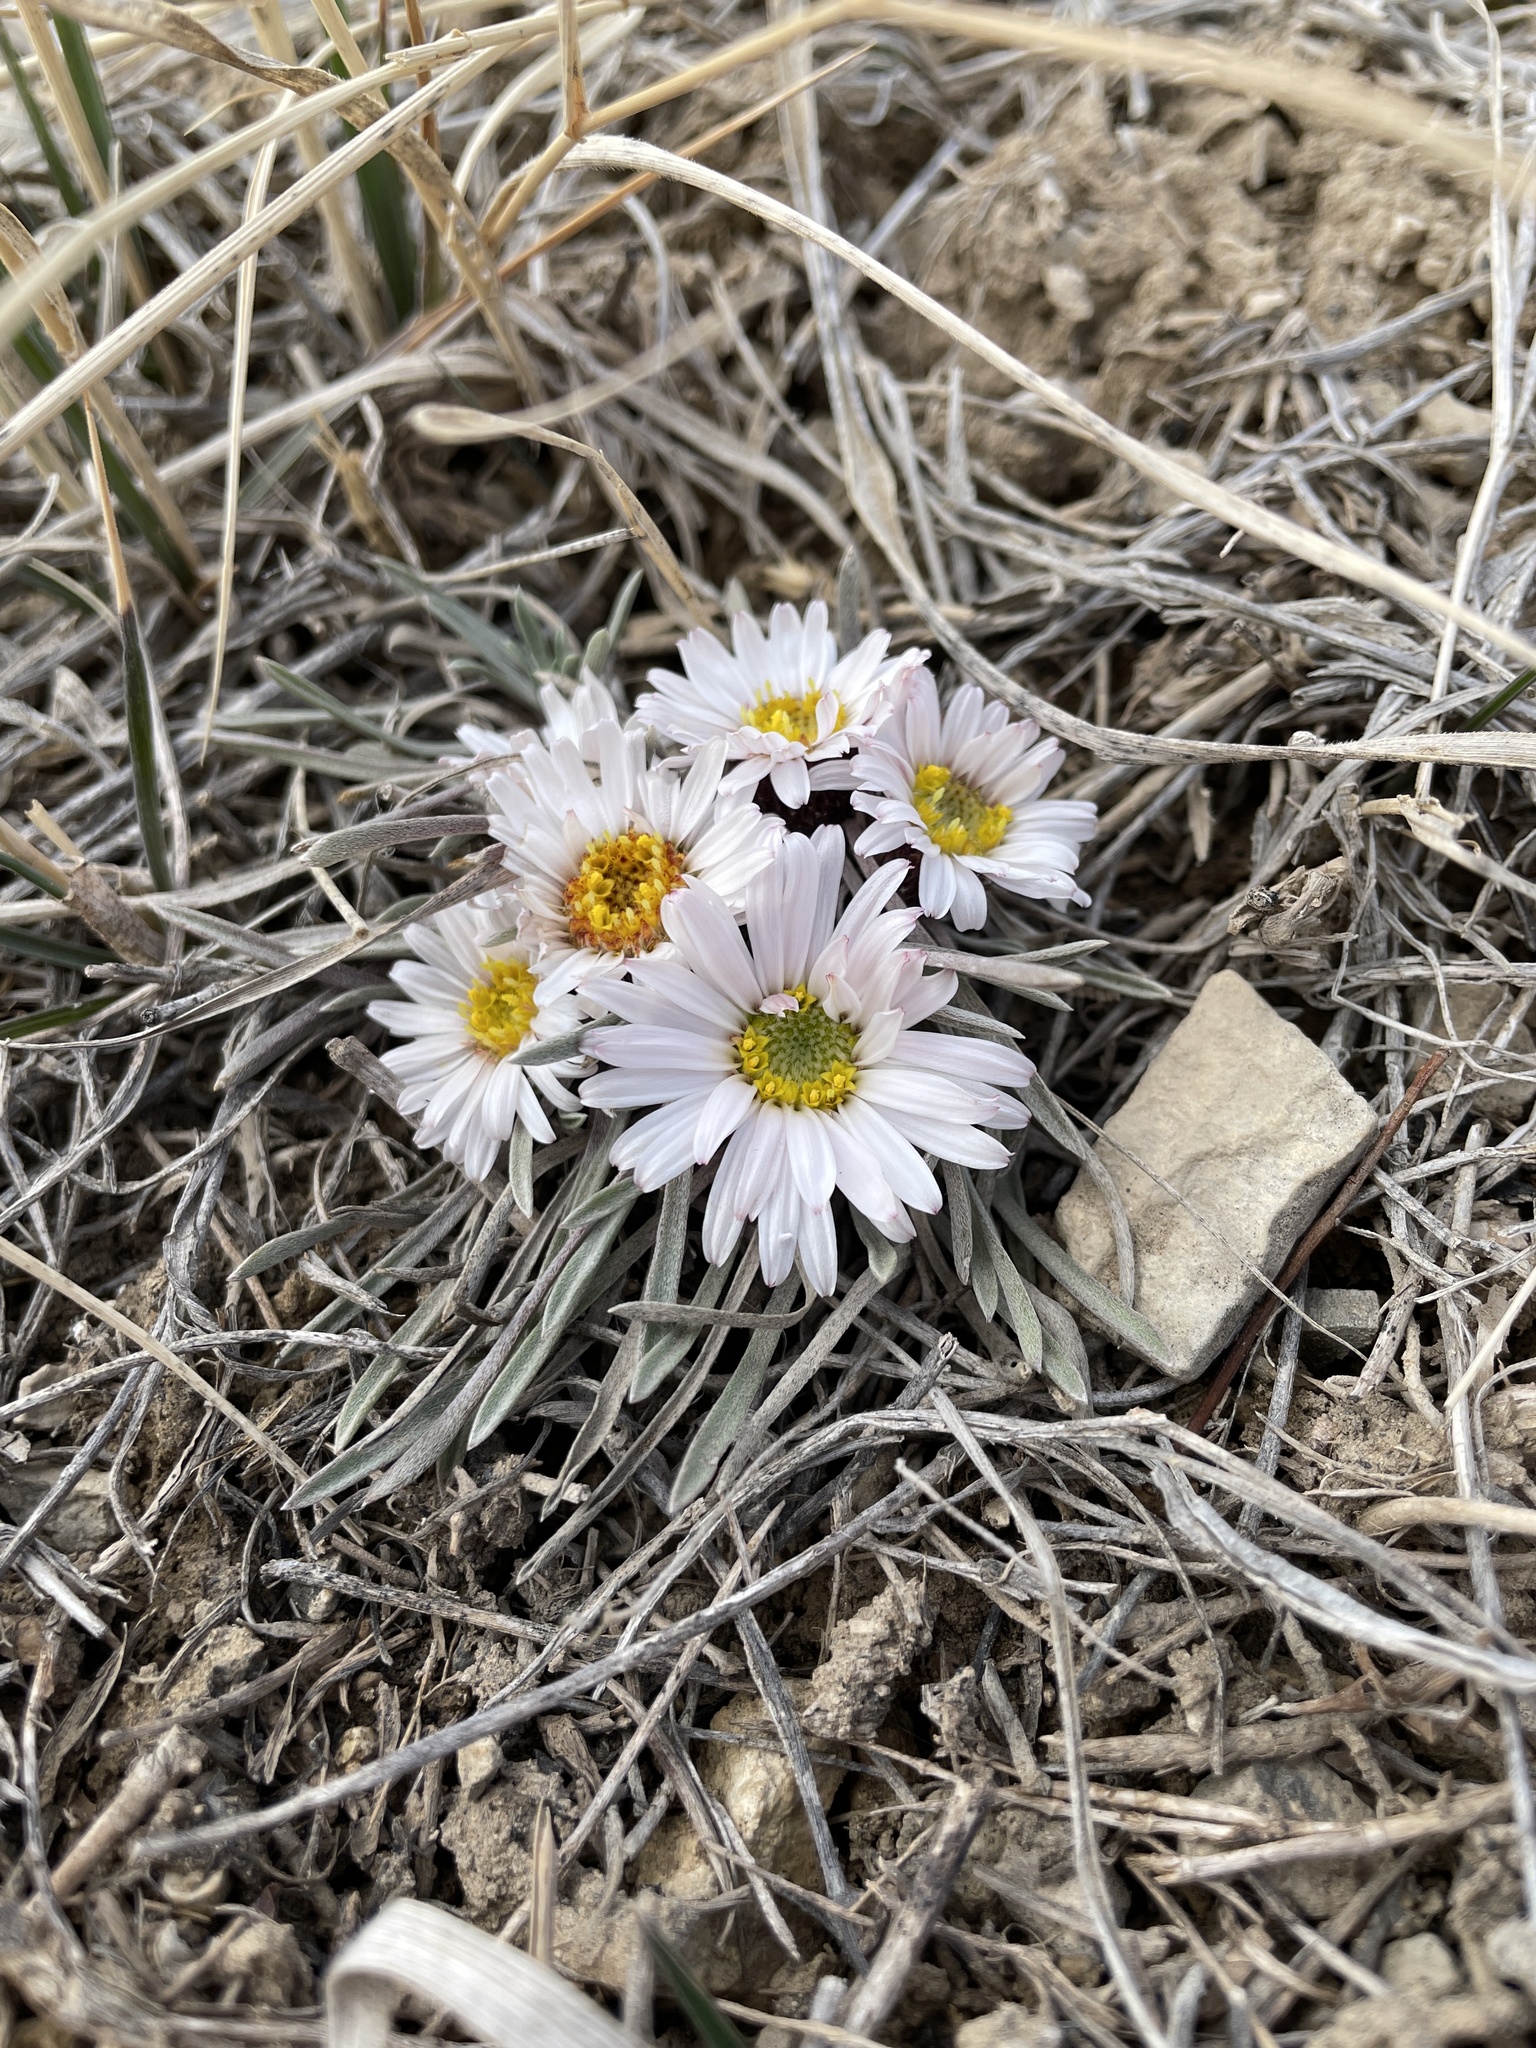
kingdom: Plantae
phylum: Tracheophyta
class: Magnoliopsida
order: Asterales
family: Asteraceae
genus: Townsendia
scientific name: Townsendia hookeri
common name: Hooker's townsend daisy
